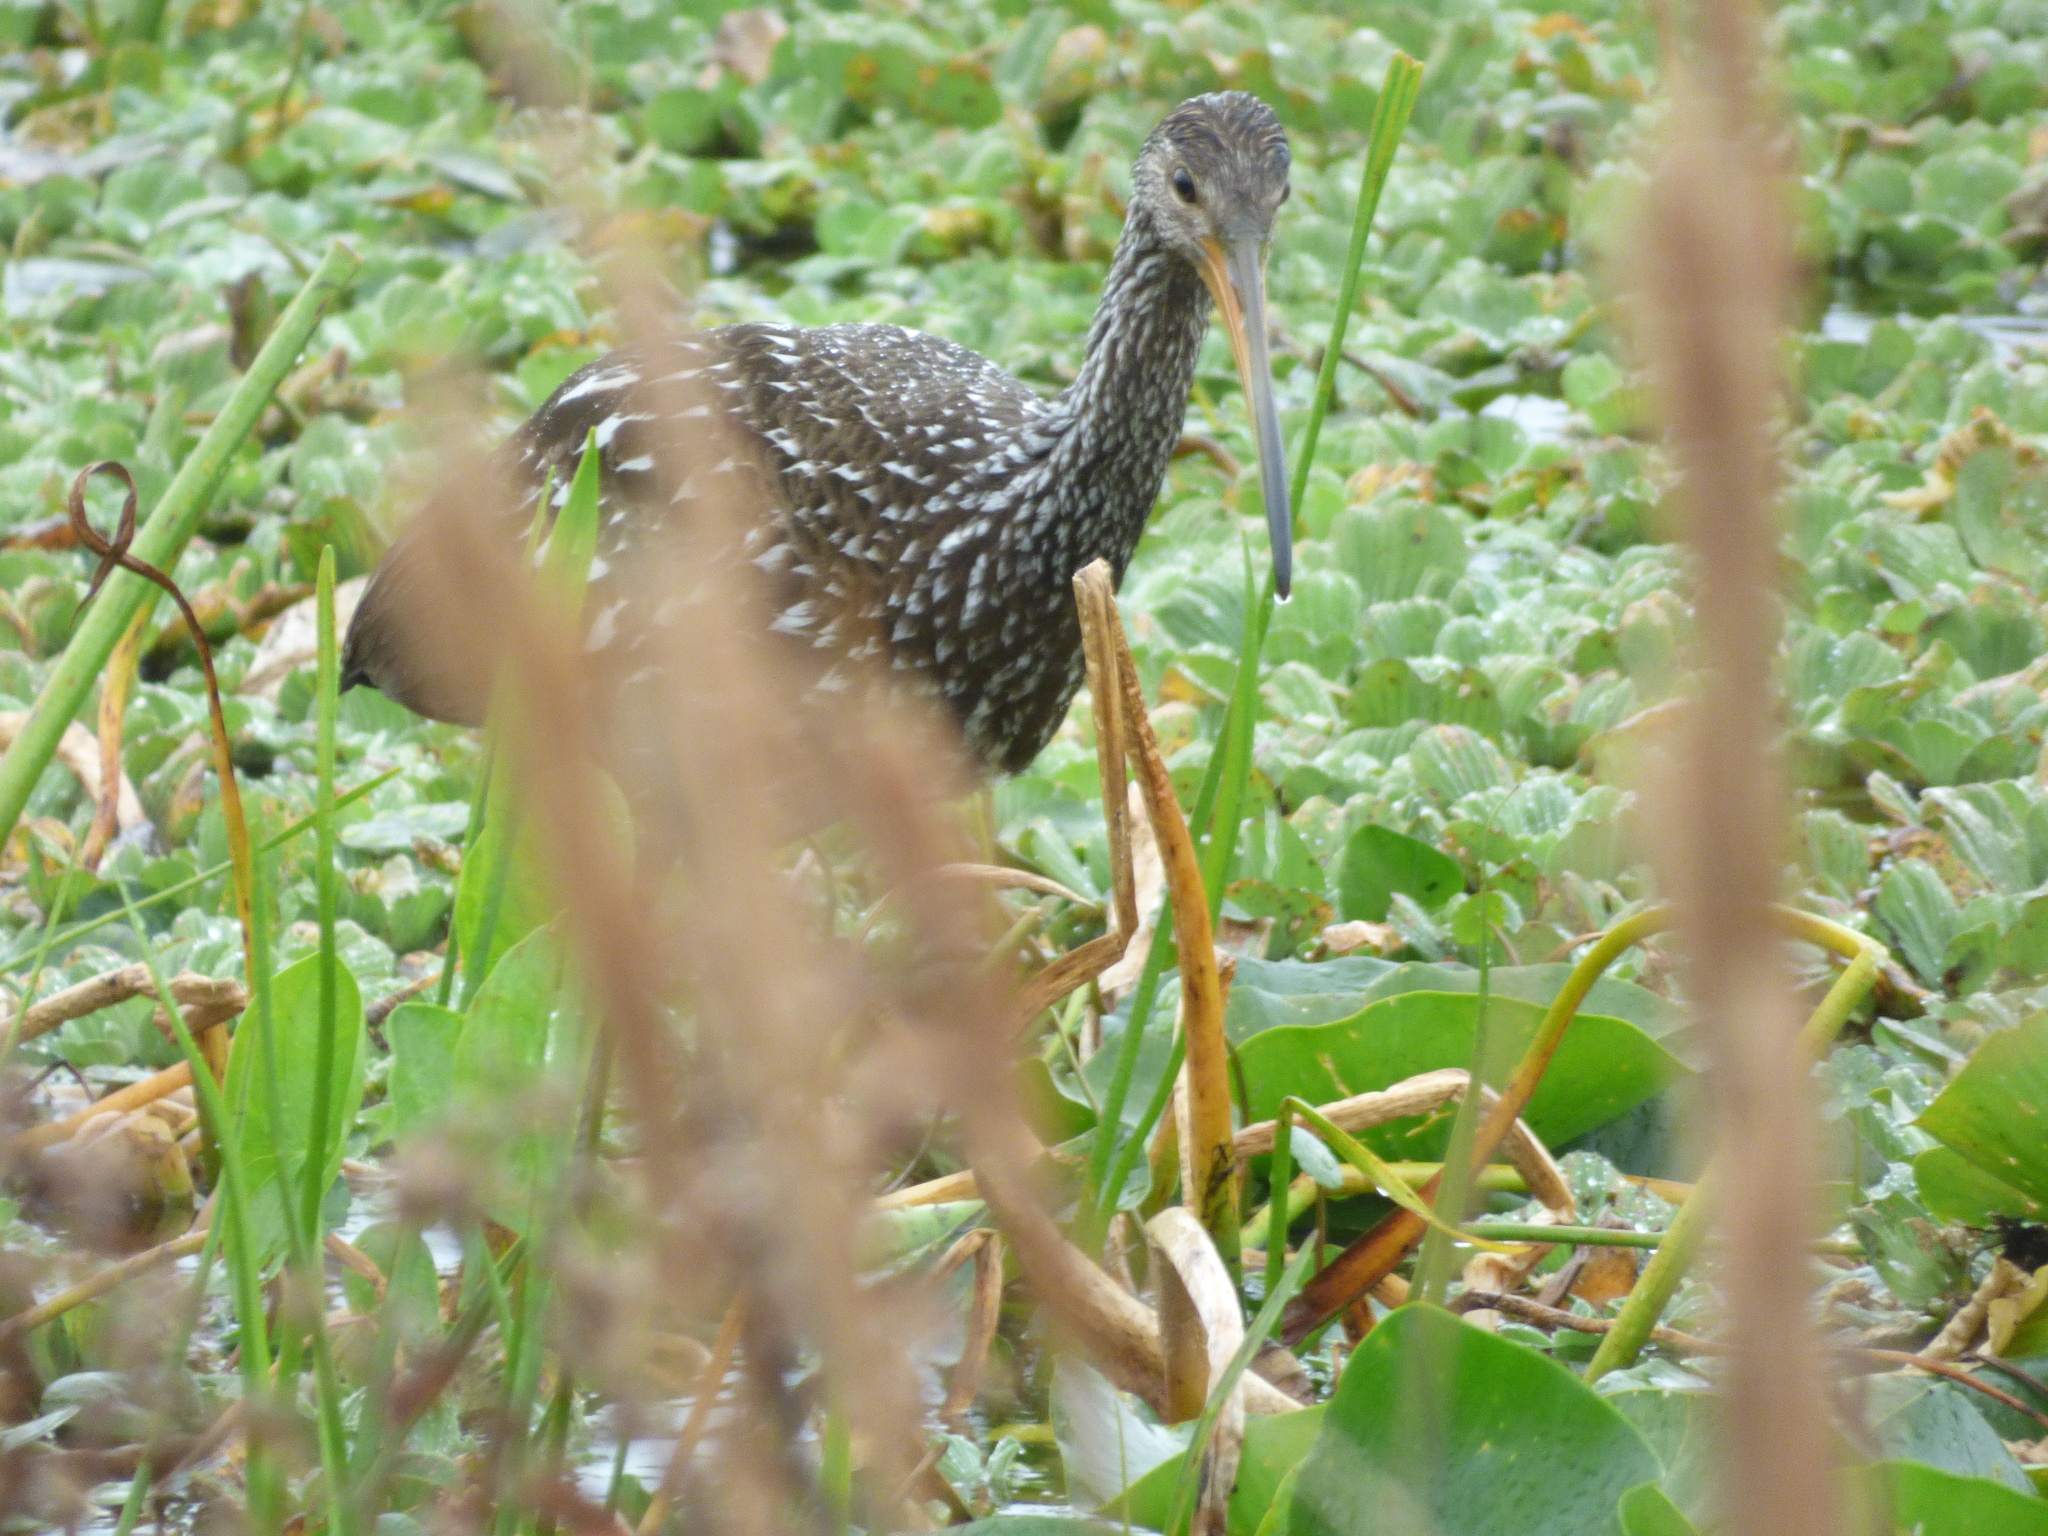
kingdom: Animalia
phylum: Chordata
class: Aves
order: Gruiformes
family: Aramidae
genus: Aramus
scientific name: Aramus guarauna
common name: Limpkin
